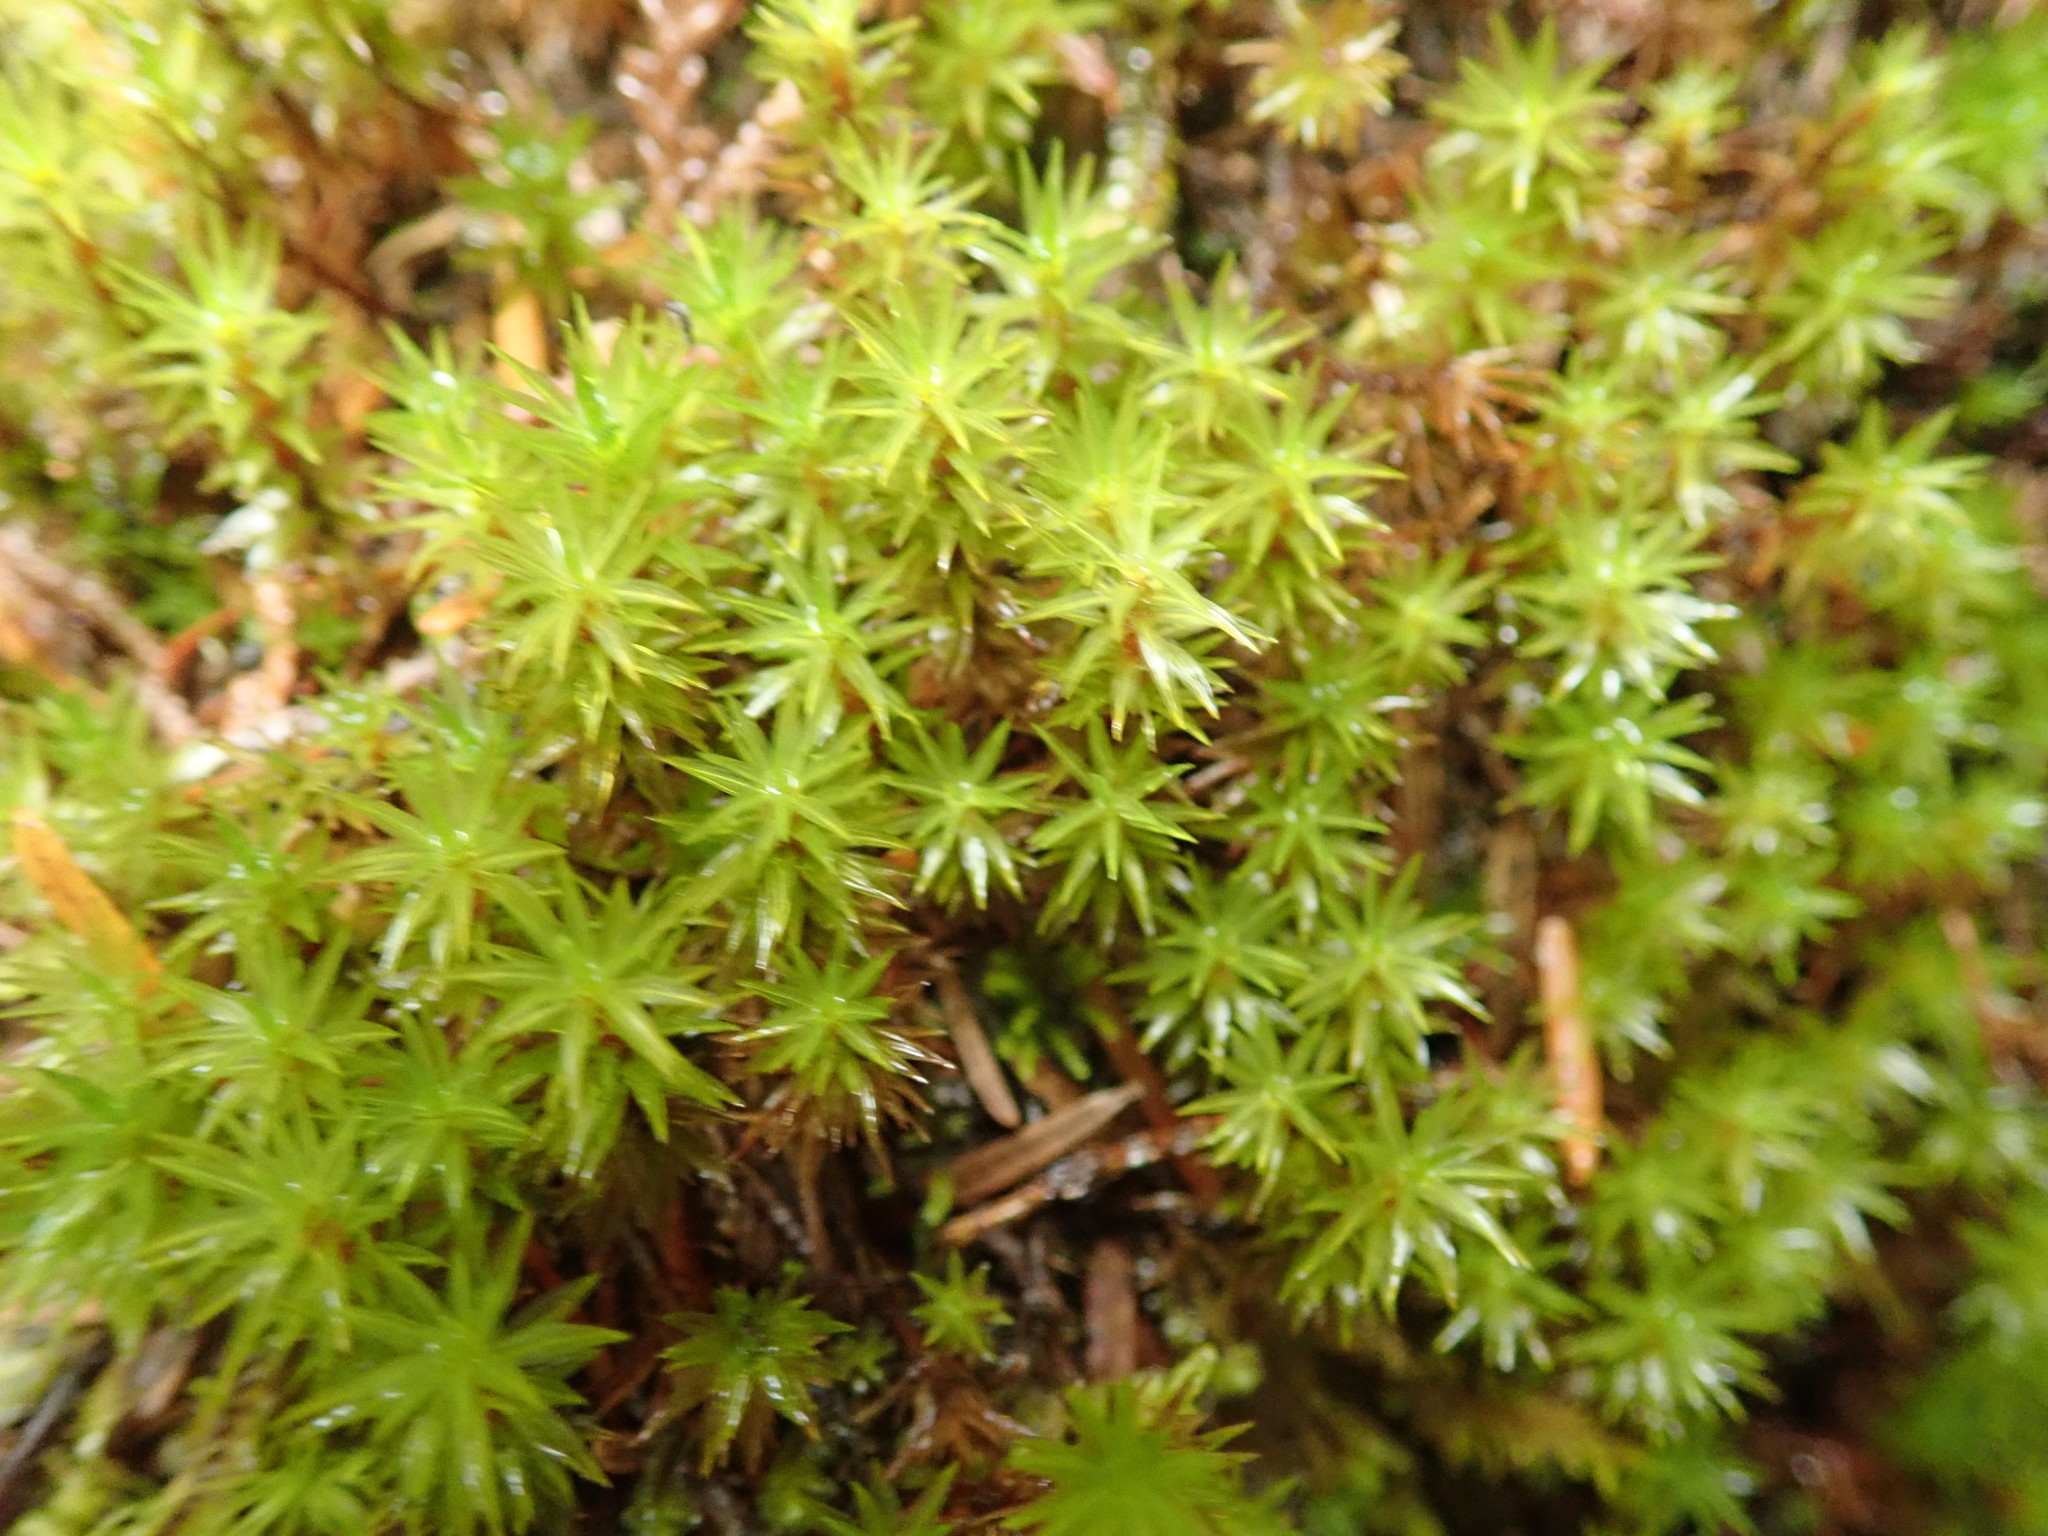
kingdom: Plantae
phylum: Bryophyta
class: Bryopsida
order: Timmiales
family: Timmiaceae
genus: Timmia
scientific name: Timmia austriaca
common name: Austrian timmia
